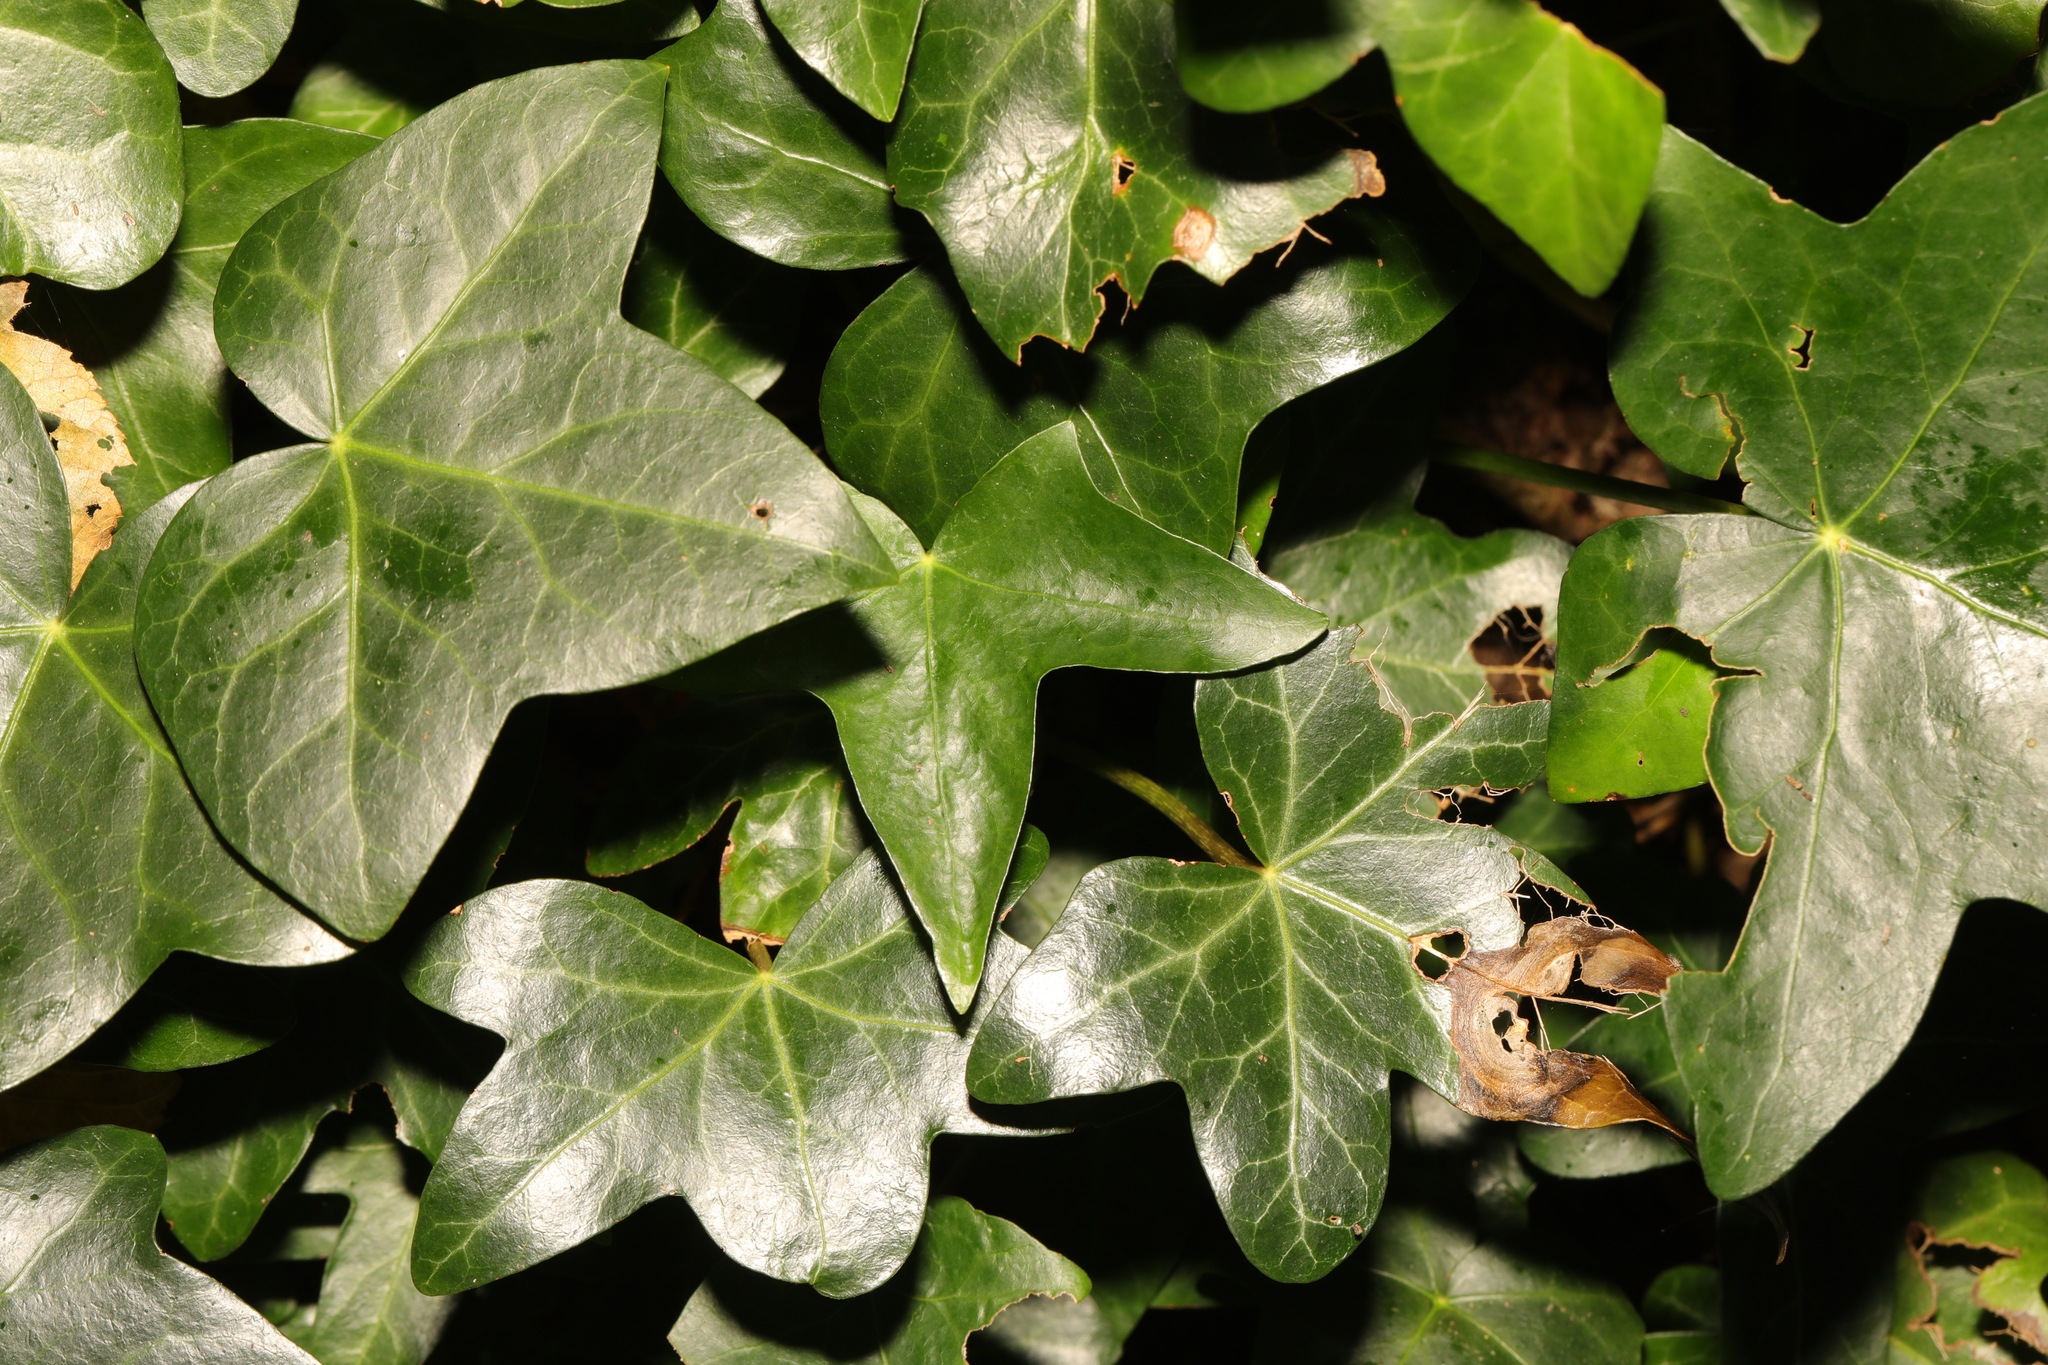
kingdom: Plantae
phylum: Tracheophyta
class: Magnoliopsida
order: Apiales
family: Araliaceae
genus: Hedera
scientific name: Hedera helix
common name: Ivy
